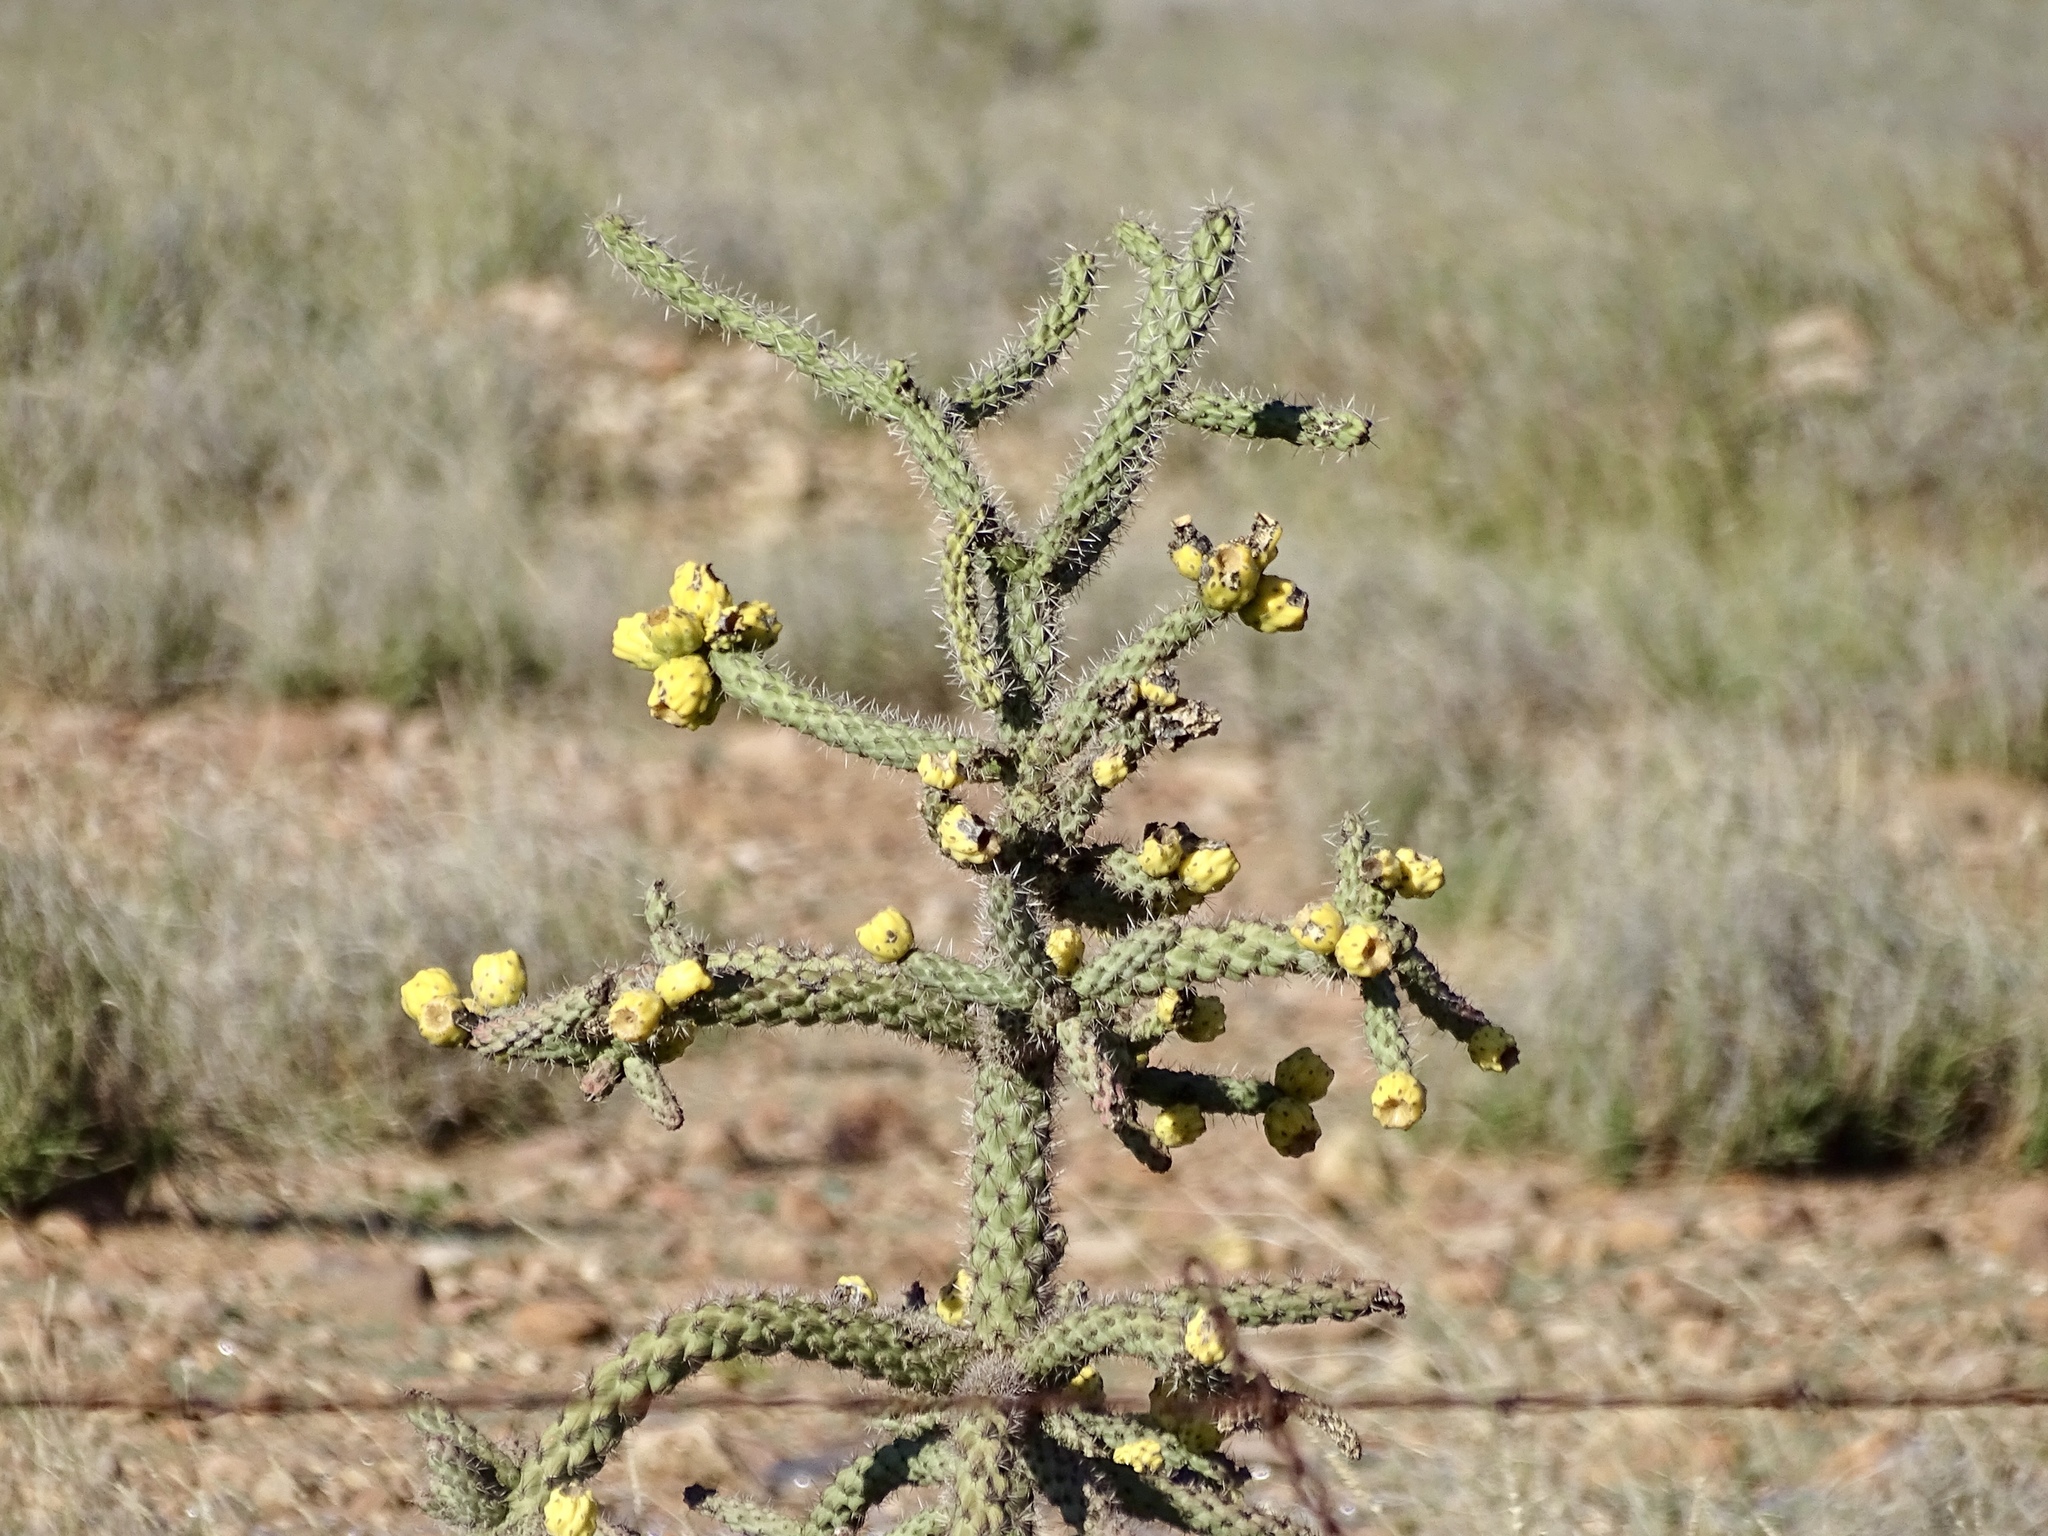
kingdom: Plantae
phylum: Tracheophyta
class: Magnoliopsida
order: Caryophyllales
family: Cactaceae
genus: Cylindropuntia
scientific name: Cylindropuntia imbricata
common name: Candelabrum cactus
